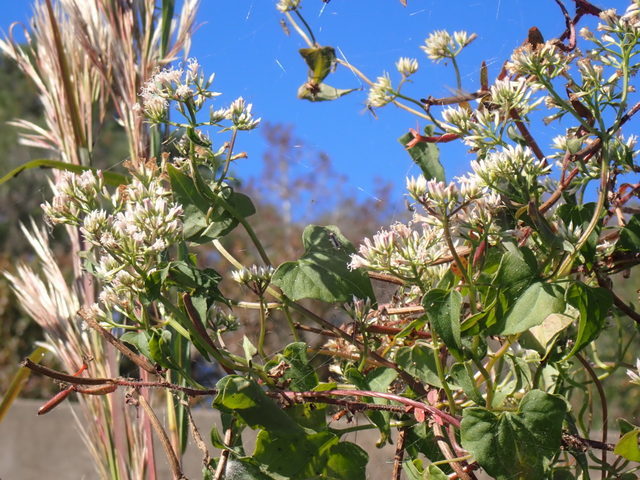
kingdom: Plantae
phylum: Tracheophyta
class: Magnoliopsida
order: Asterales
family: Asteraceae
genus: Mikania
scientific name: Mikania scandens
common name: Climbing hempvine
